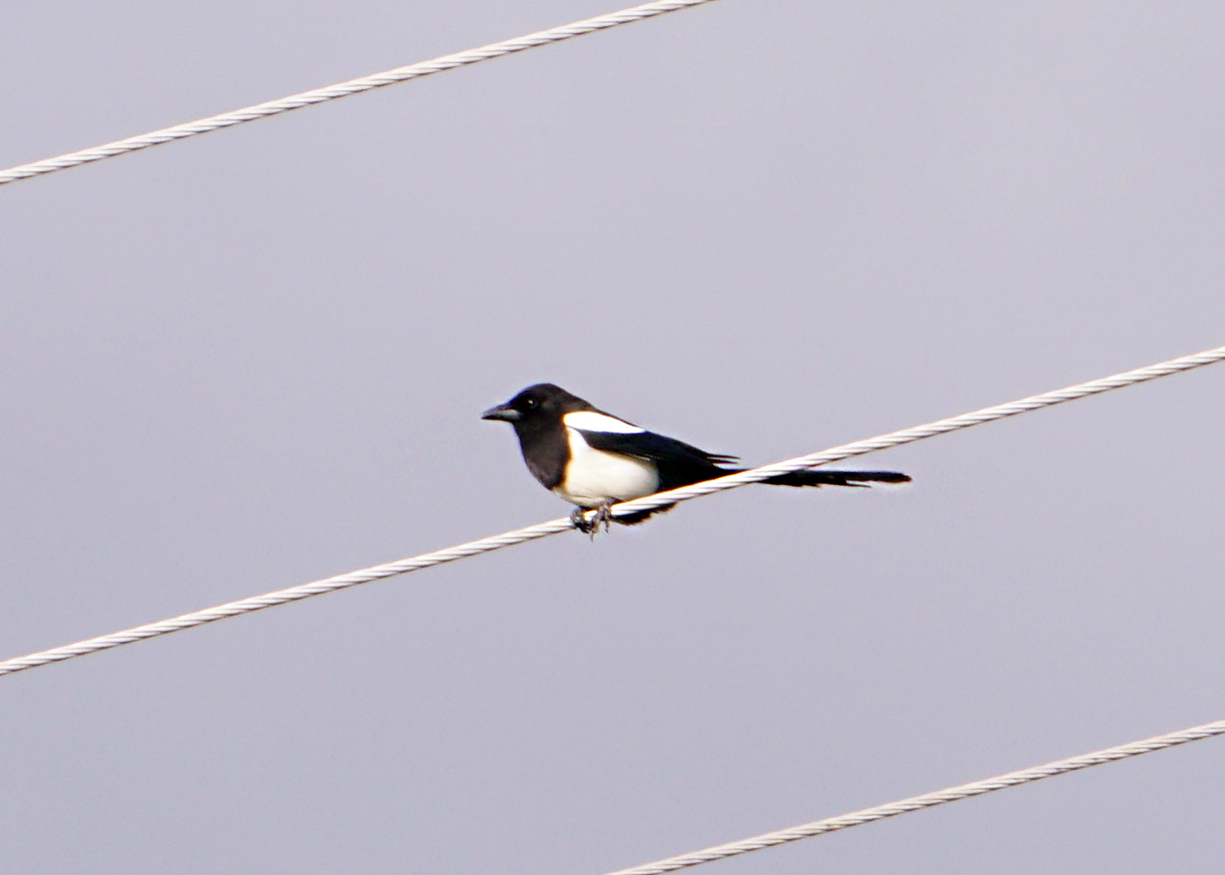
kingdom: Animalia
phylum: Chordata
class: Aves
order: Passeriformes
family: Corvidae
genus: Pica
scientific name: Pica pica
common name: Eurasian magpie
